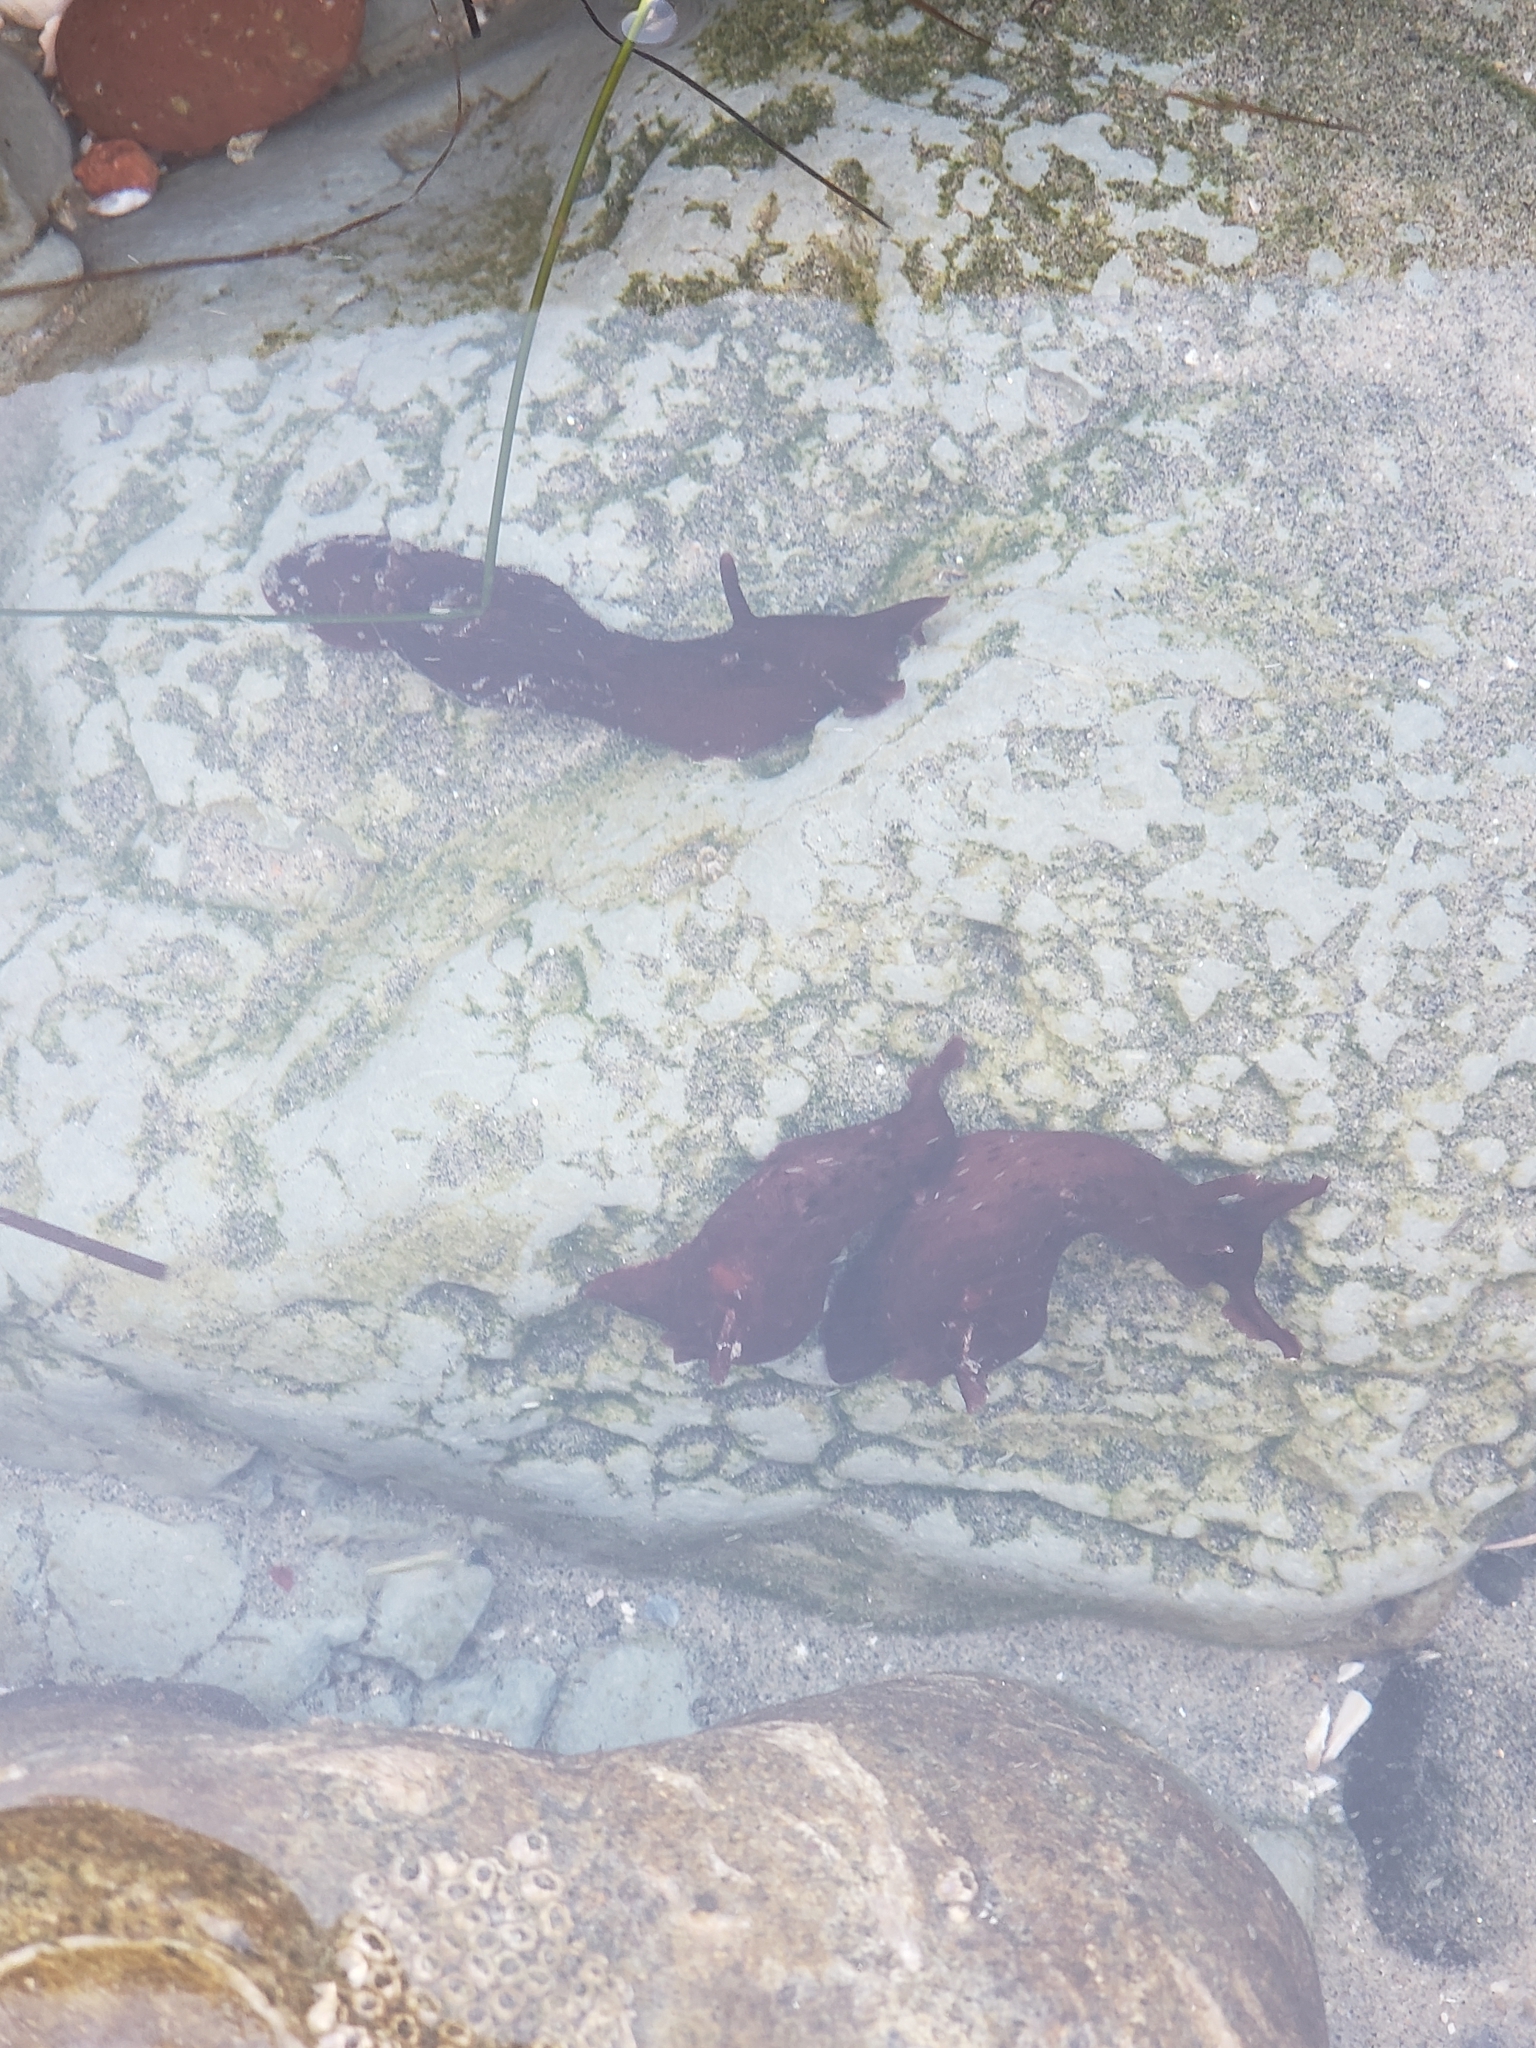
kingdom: Animalia
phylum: Mollusca
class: Gastropoda
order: Aplysiida
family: Aplysiidae
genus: Aplysia
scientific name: Aplysia californica
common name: California seahare
